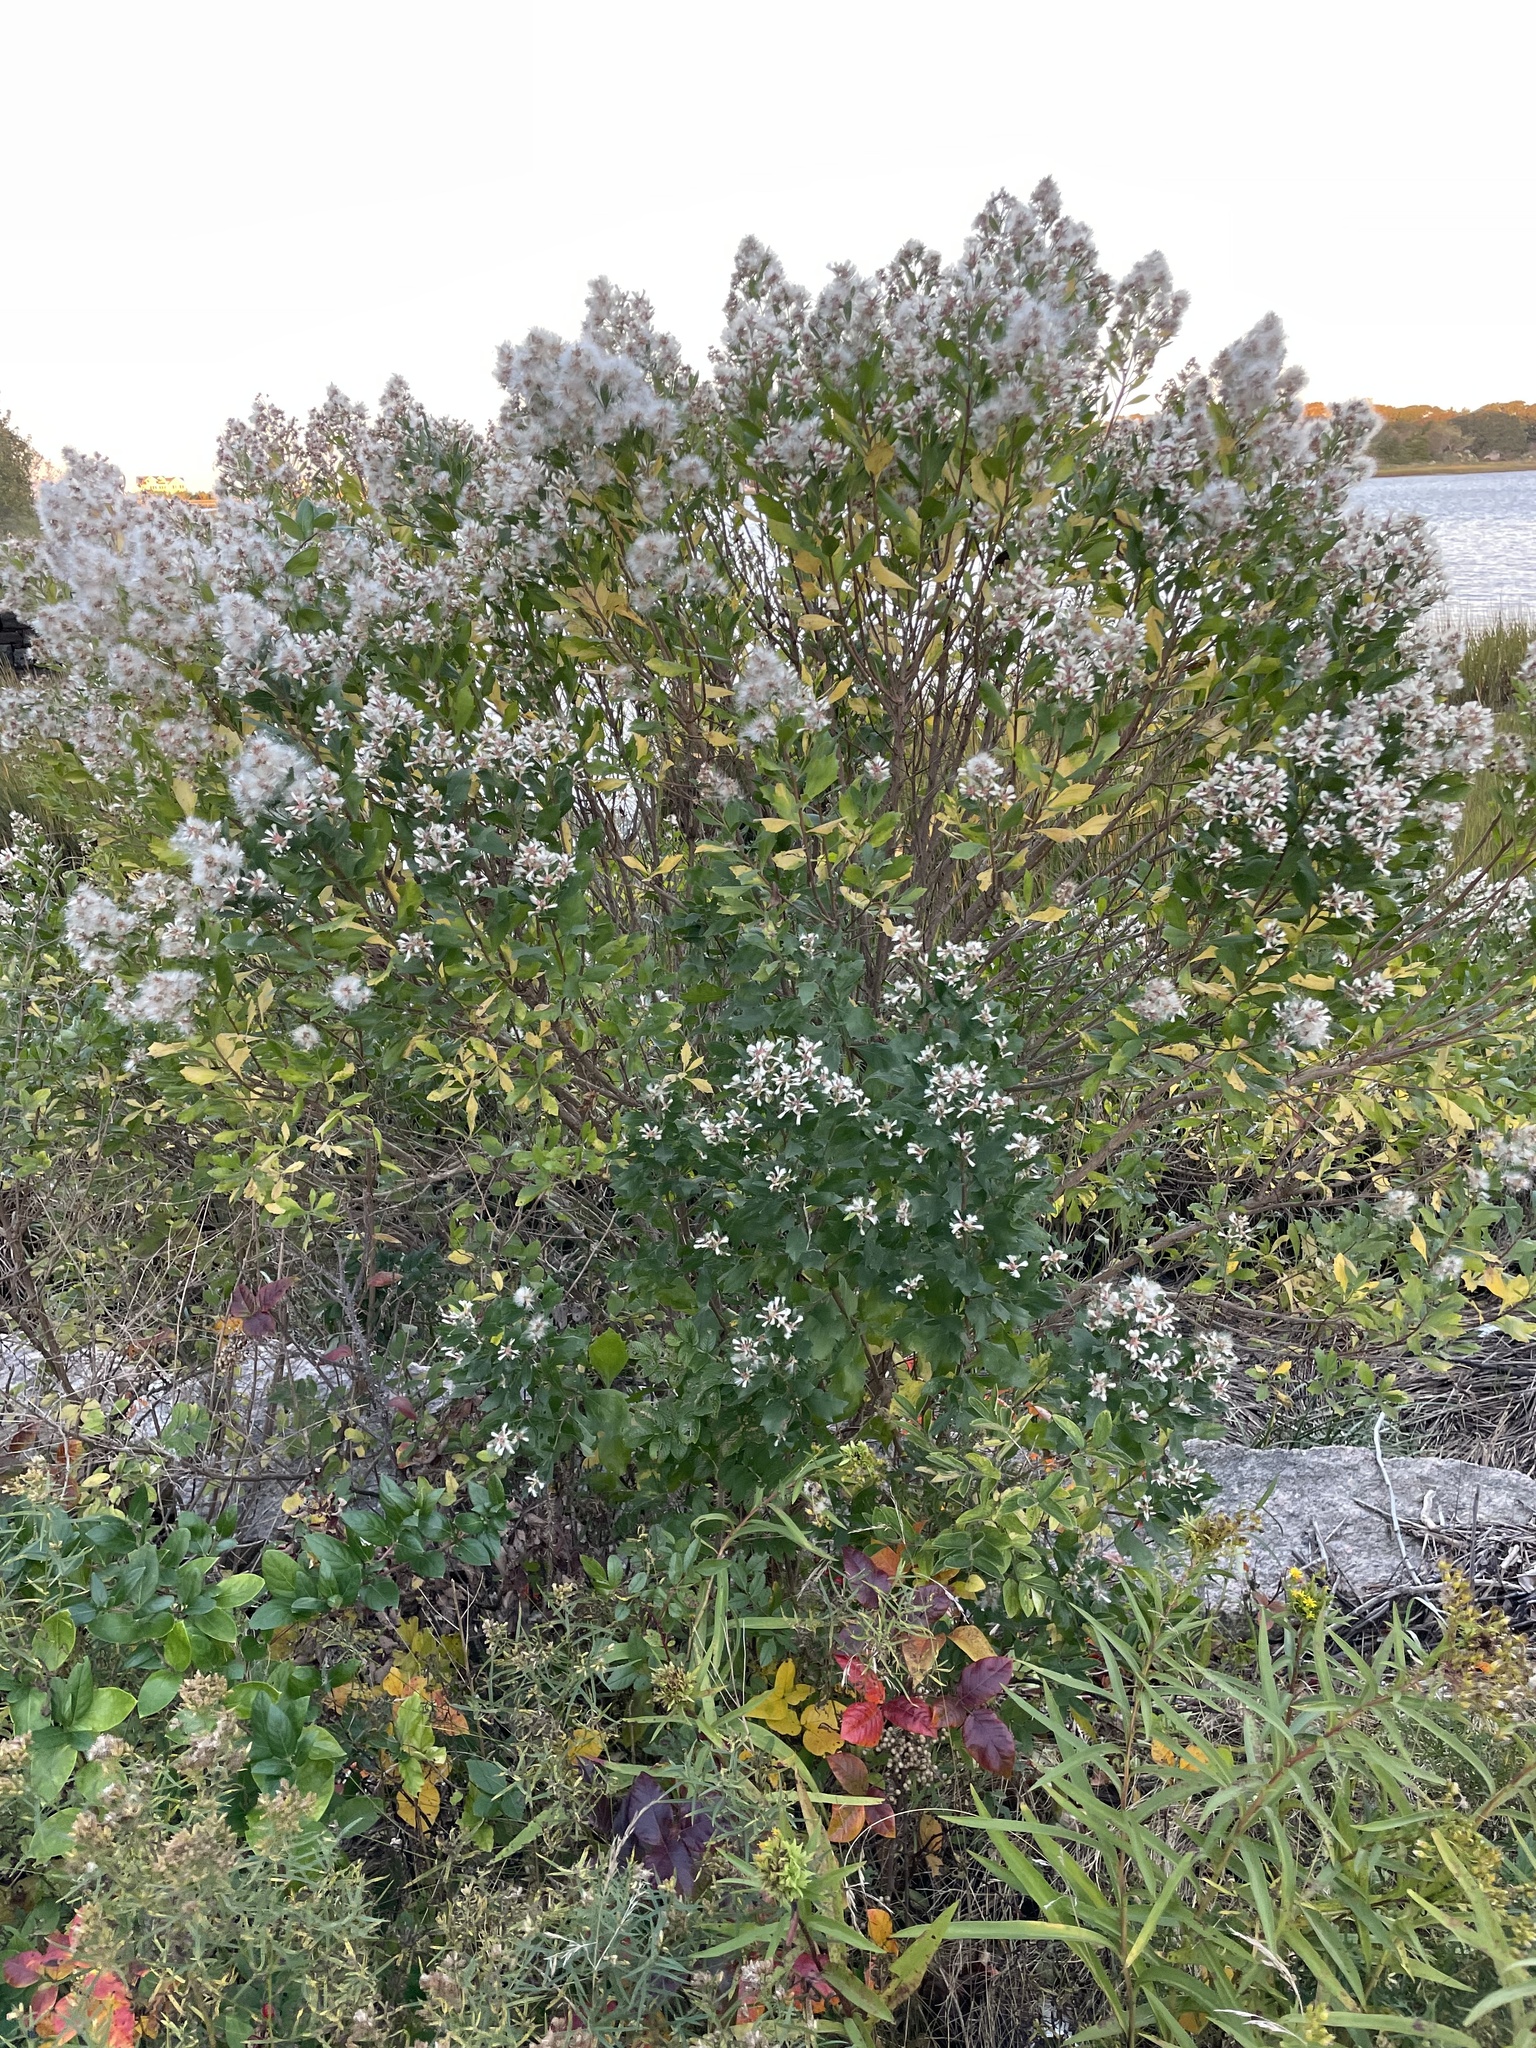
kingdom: Plantae
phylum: Tracheophyta
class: Magnoliopsida
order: Asterales
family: Asteraceae
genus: Baccharis
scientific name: Baccharis halimifolia
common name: Eastern baccharis
